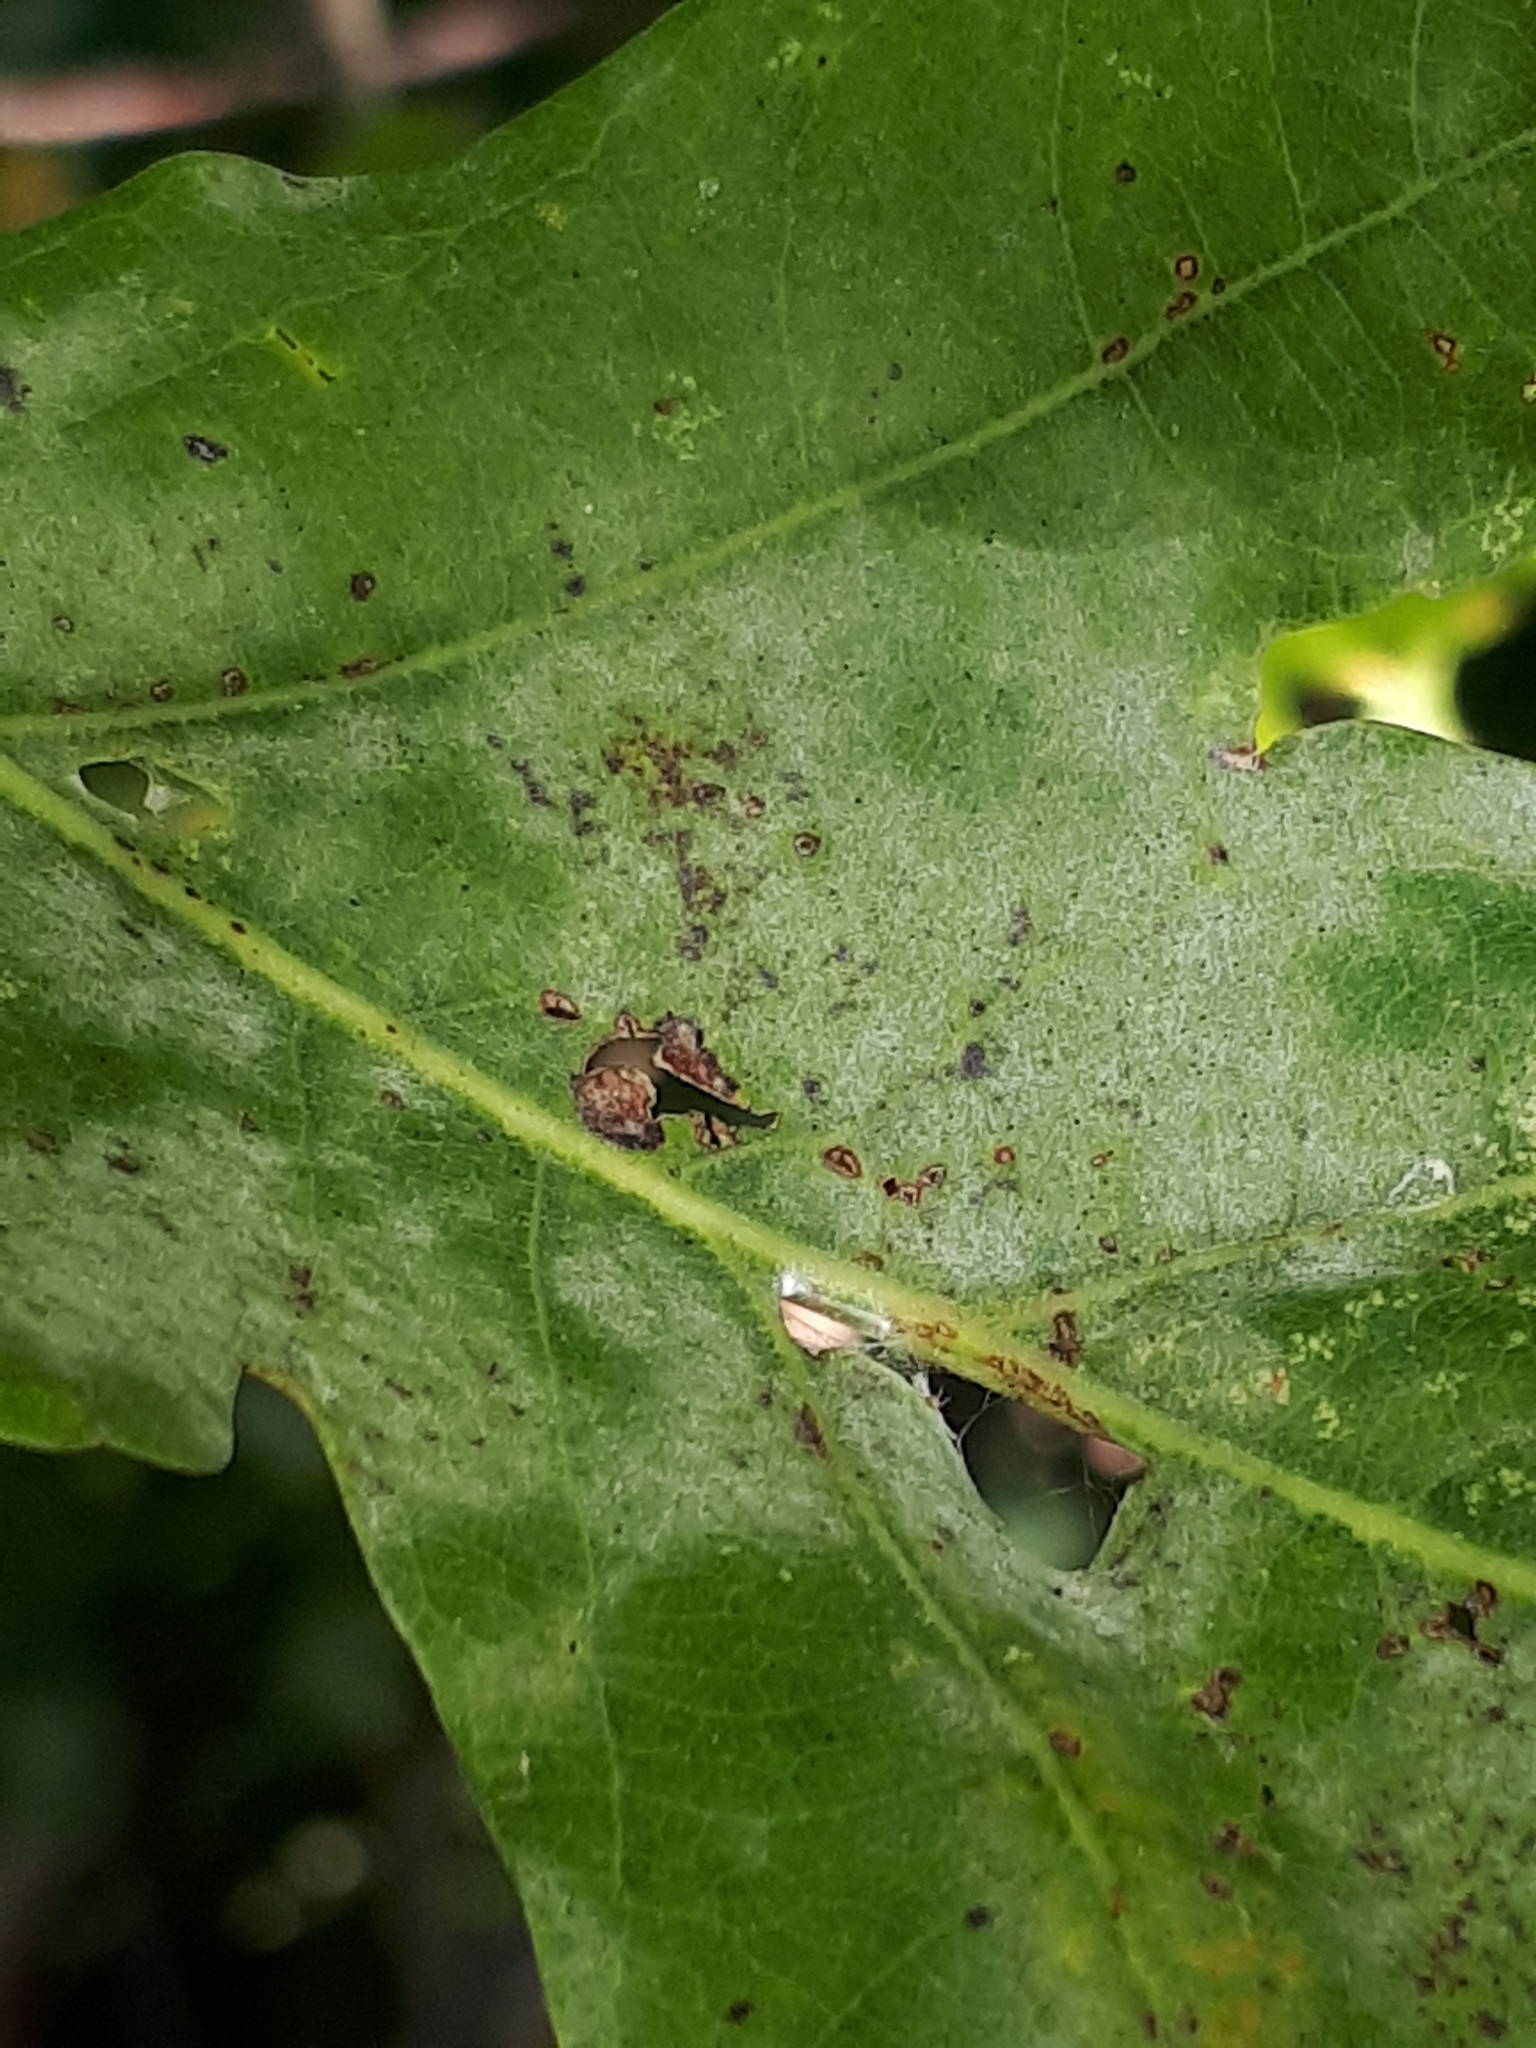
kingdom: Fungi
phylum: Ascomycota
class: Leotiomycetes
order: Helotiales
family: Erysiphaceae
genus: Erysiphe
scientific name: Erysiphe
